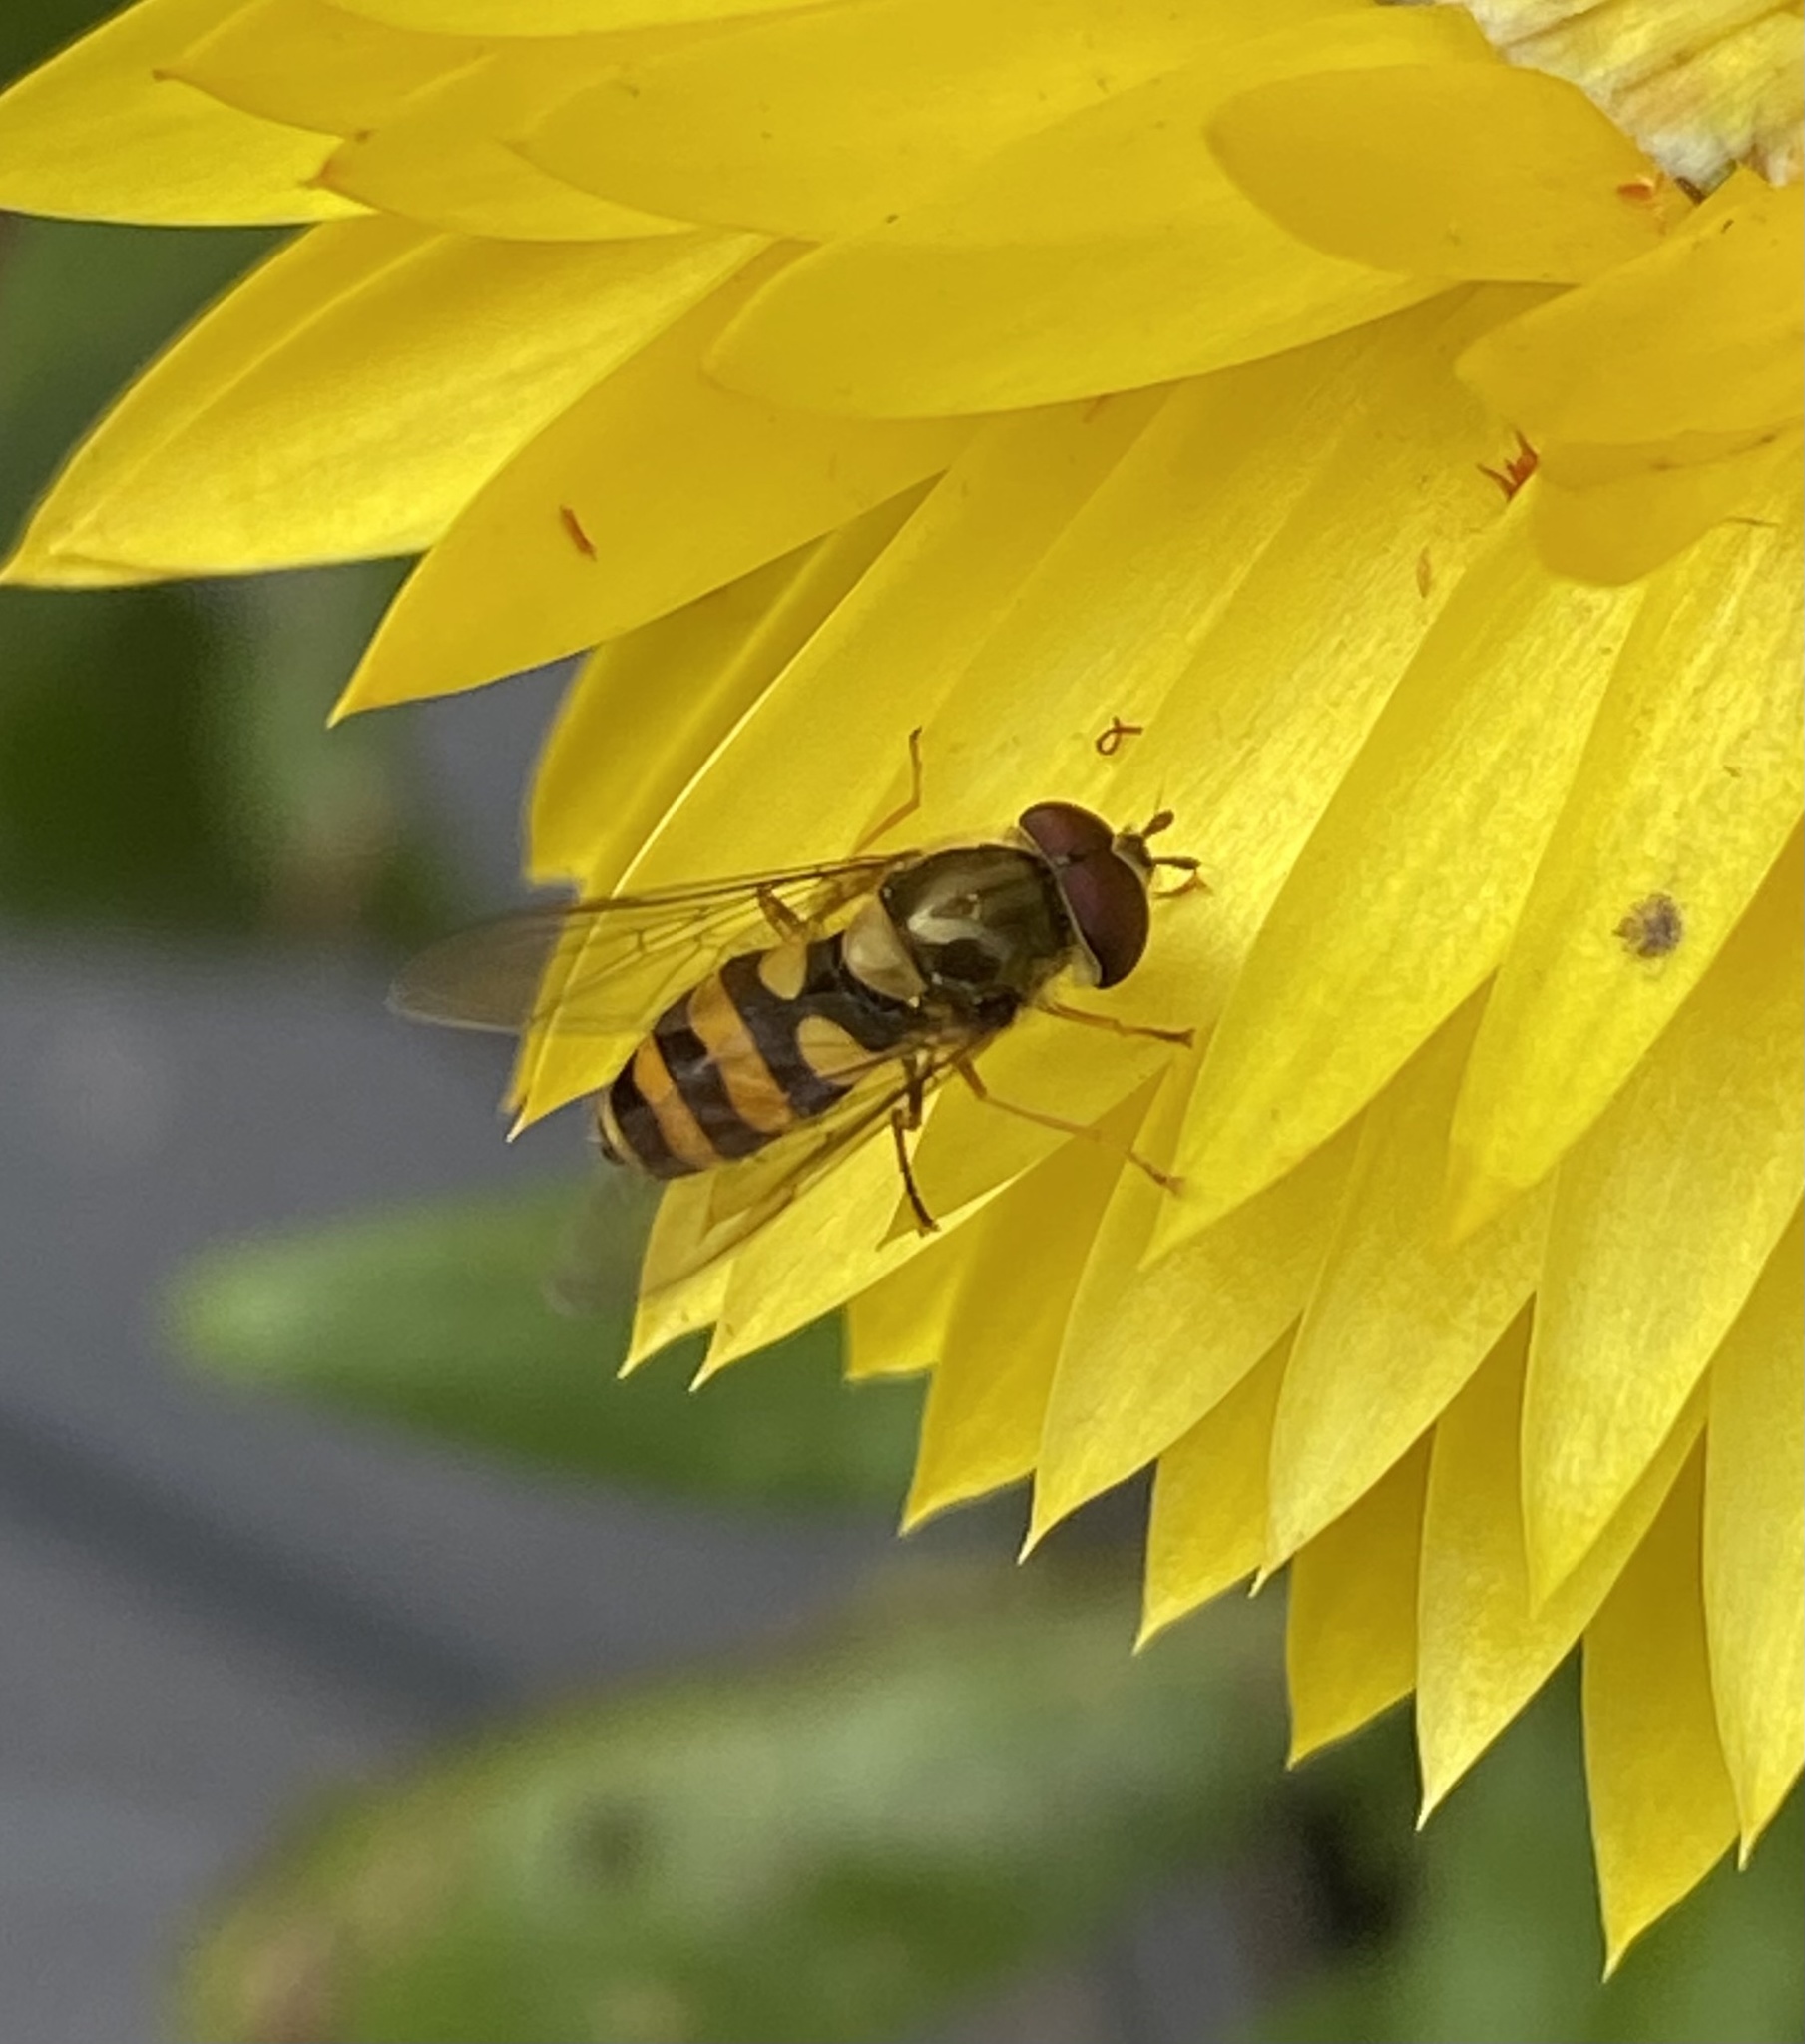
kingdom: Animalia
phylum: Arthropoda
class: Insecta
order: Diptera
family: Syrphidae
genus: Syrphus
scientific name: Syrphus
